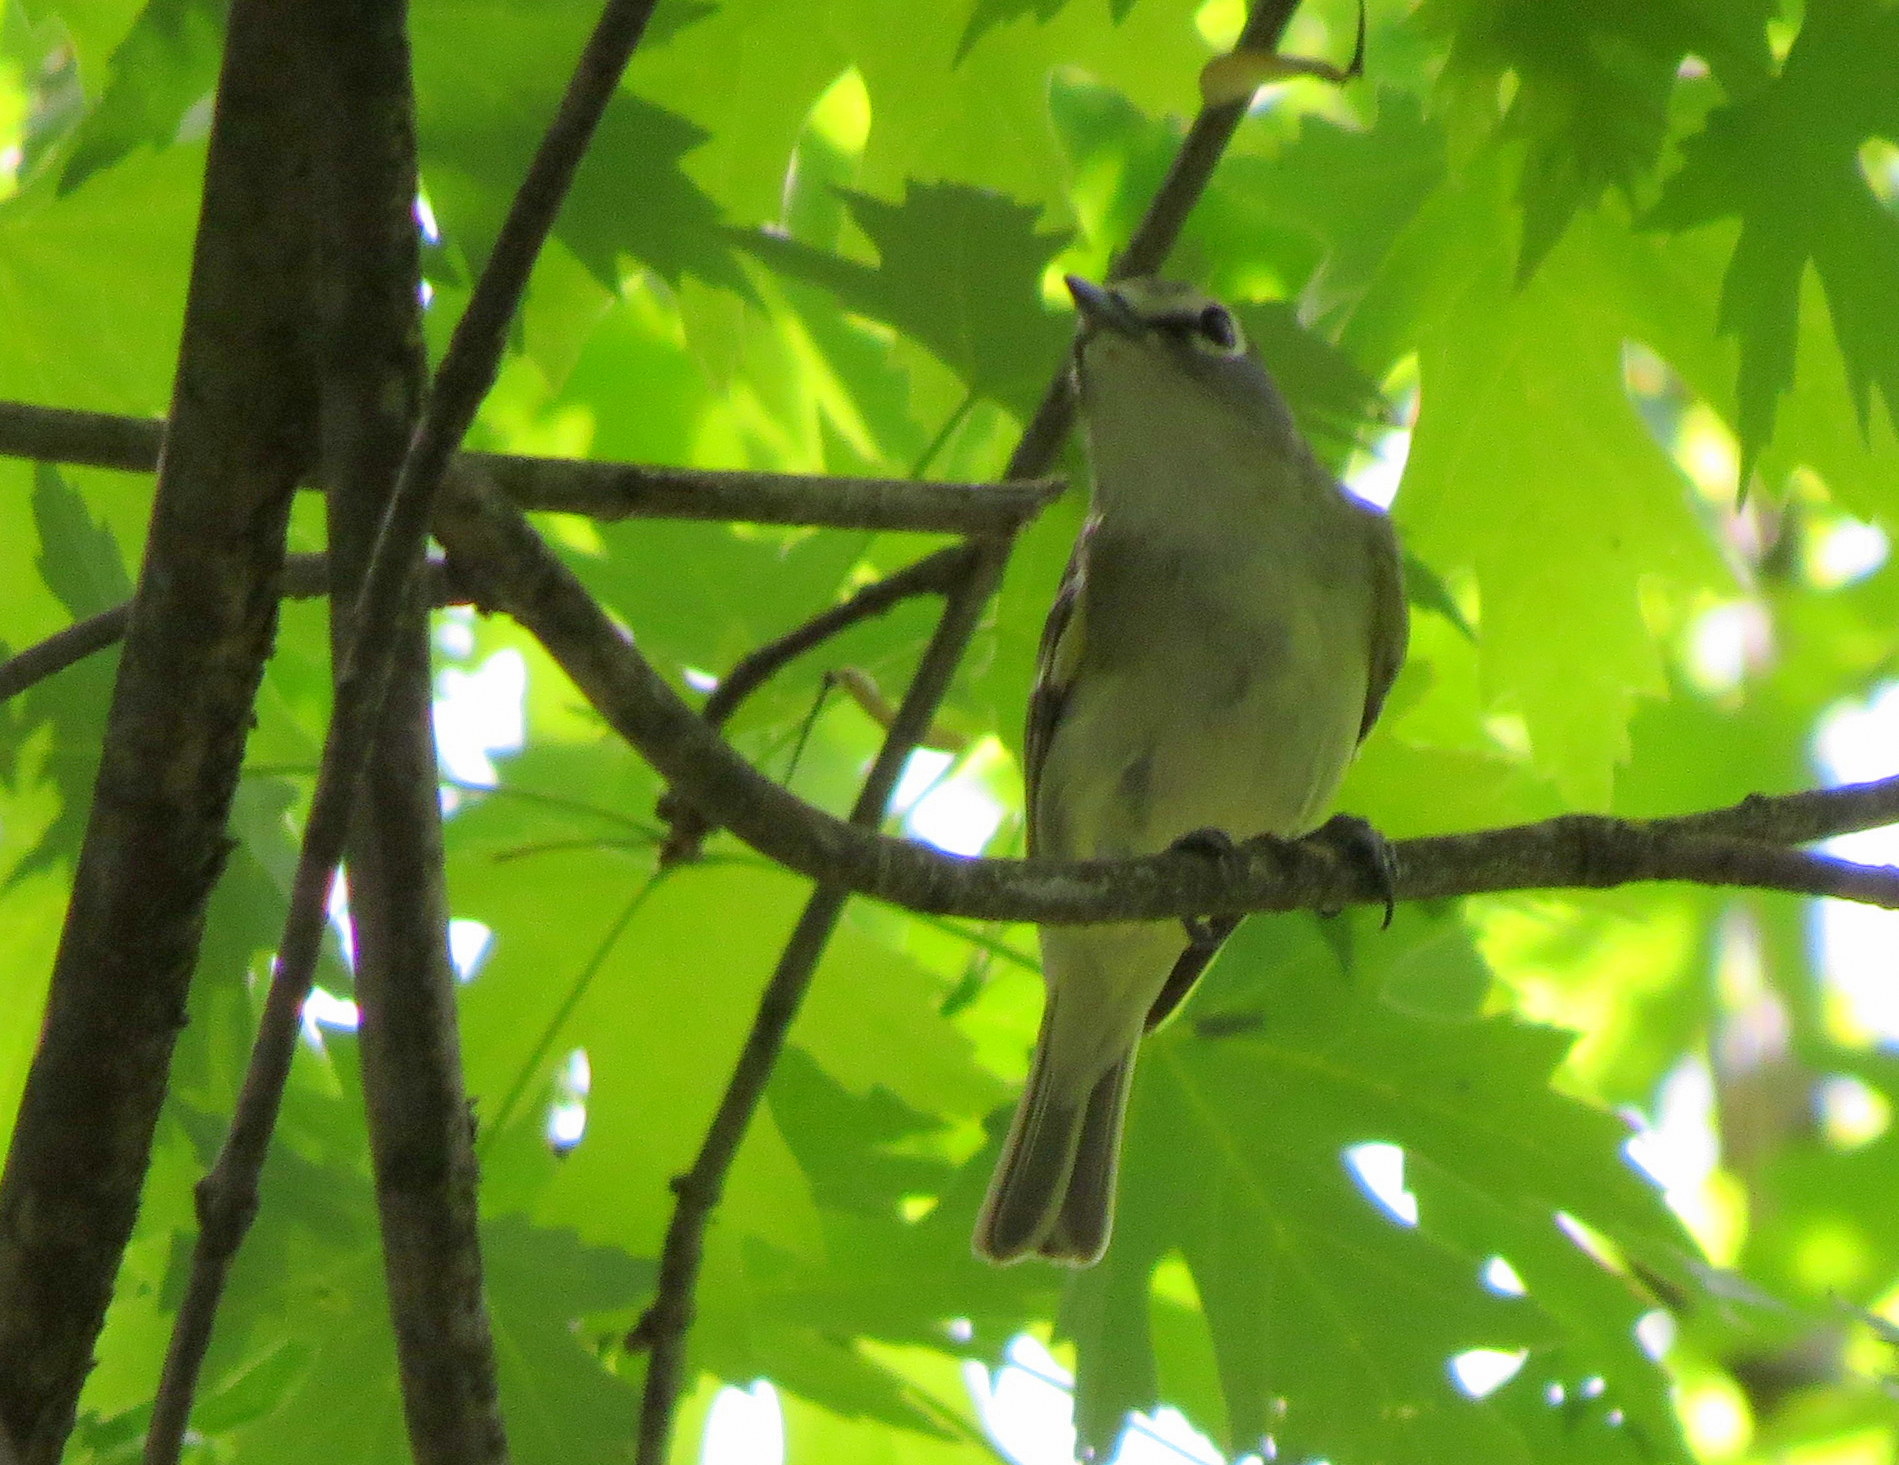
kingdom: Animalia
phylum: Chordata
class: Aves
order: Passeriformes
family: Vireonidae
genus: Vireo
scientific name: Vireo cassinii
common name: Cassin's vireo
